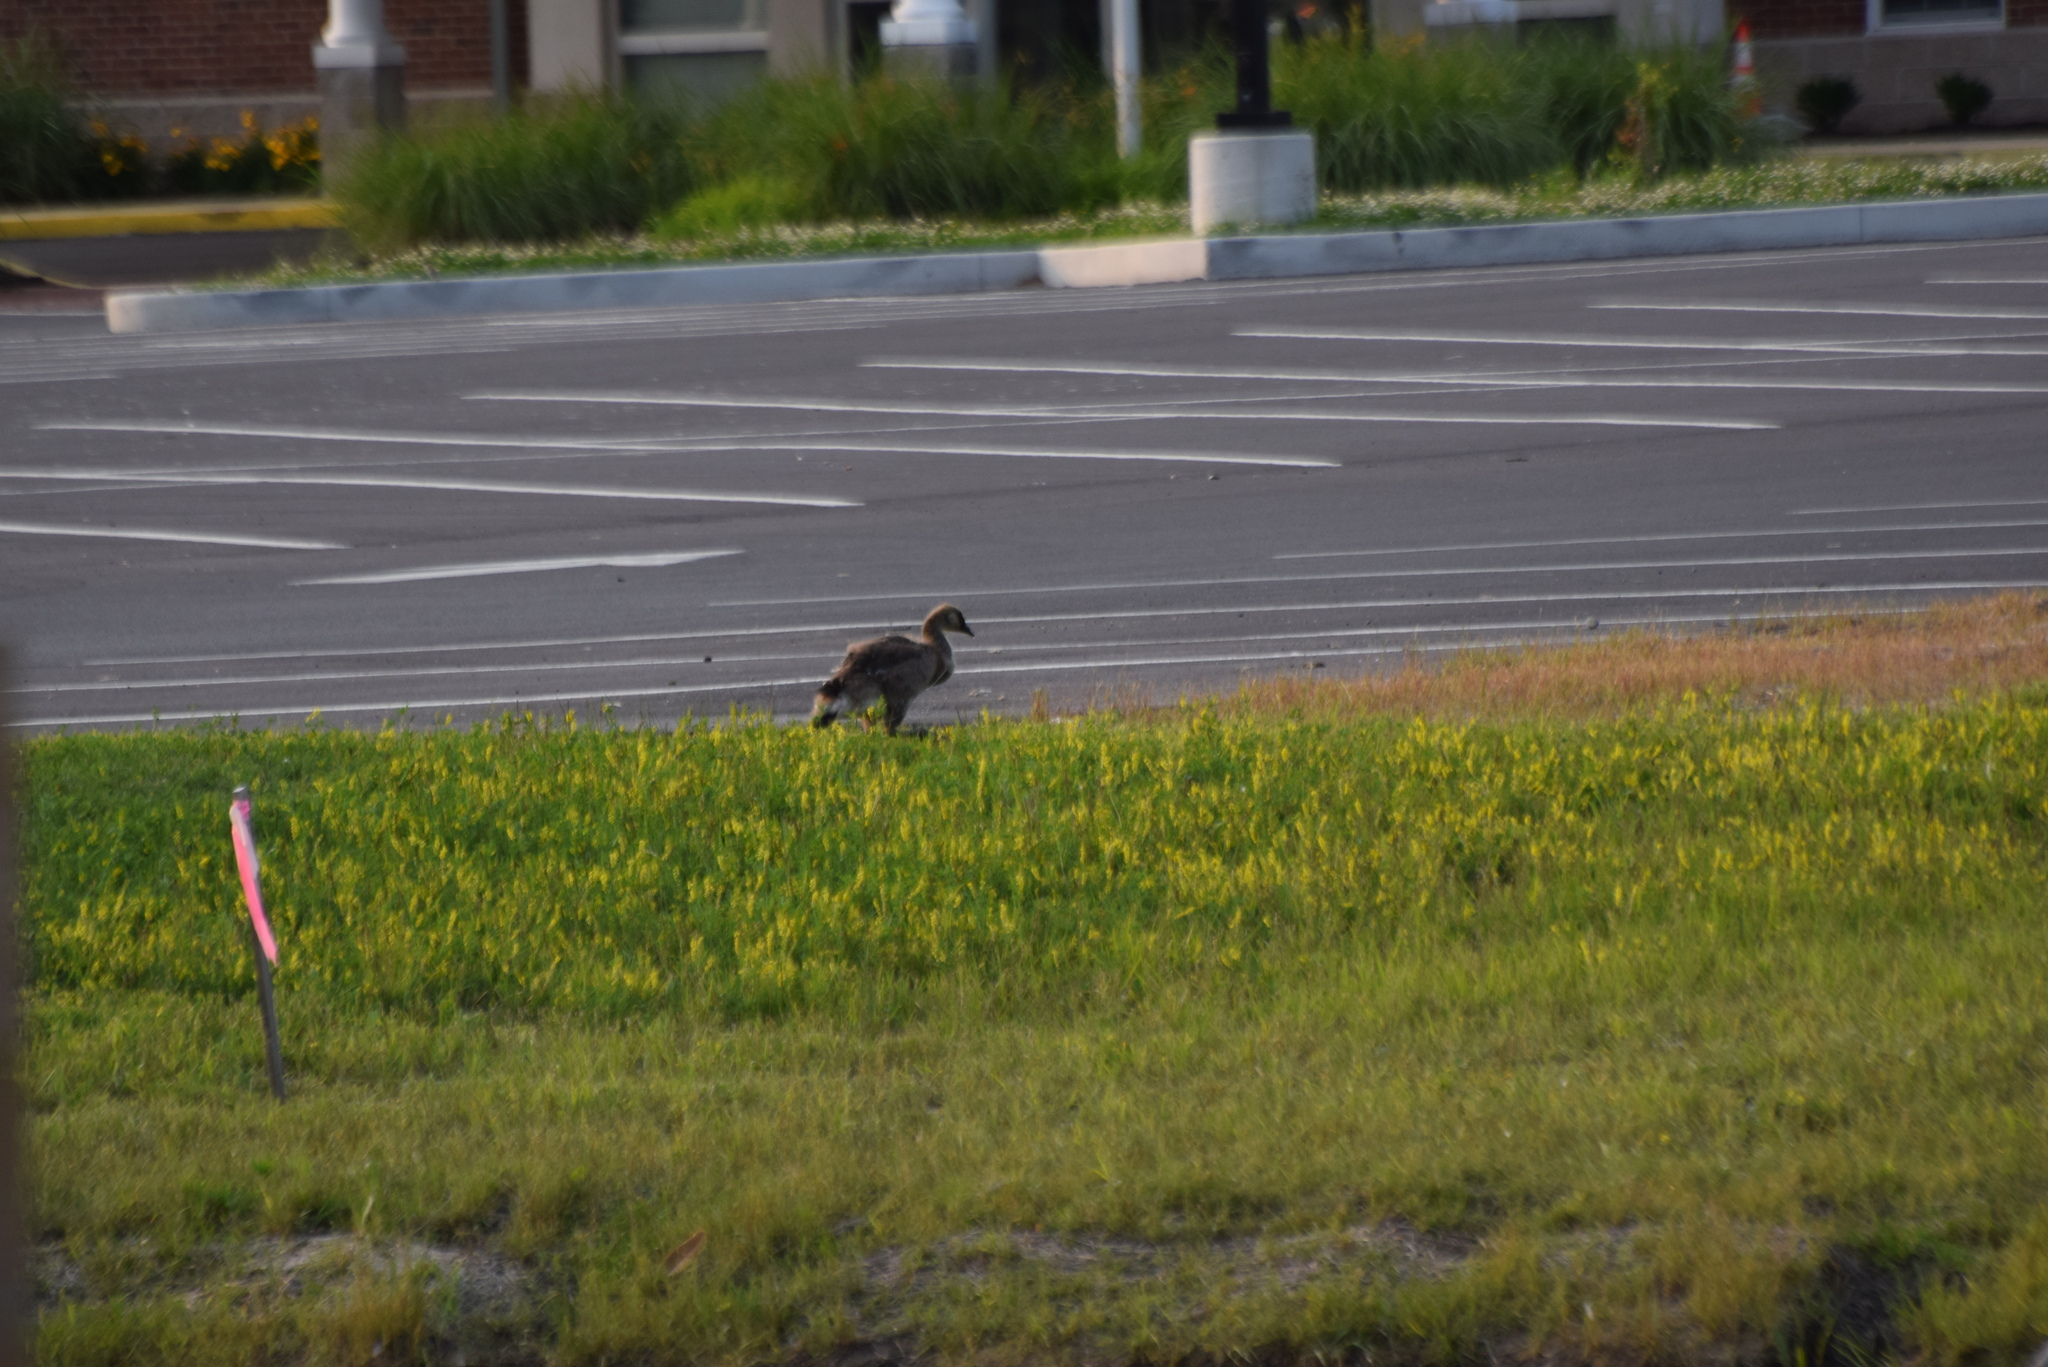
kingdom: Animalia
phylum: Chordata
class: Aves
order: Anseriformes
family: Anatidae
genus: Branta
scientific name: Branta canadensis
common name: Canada goose
